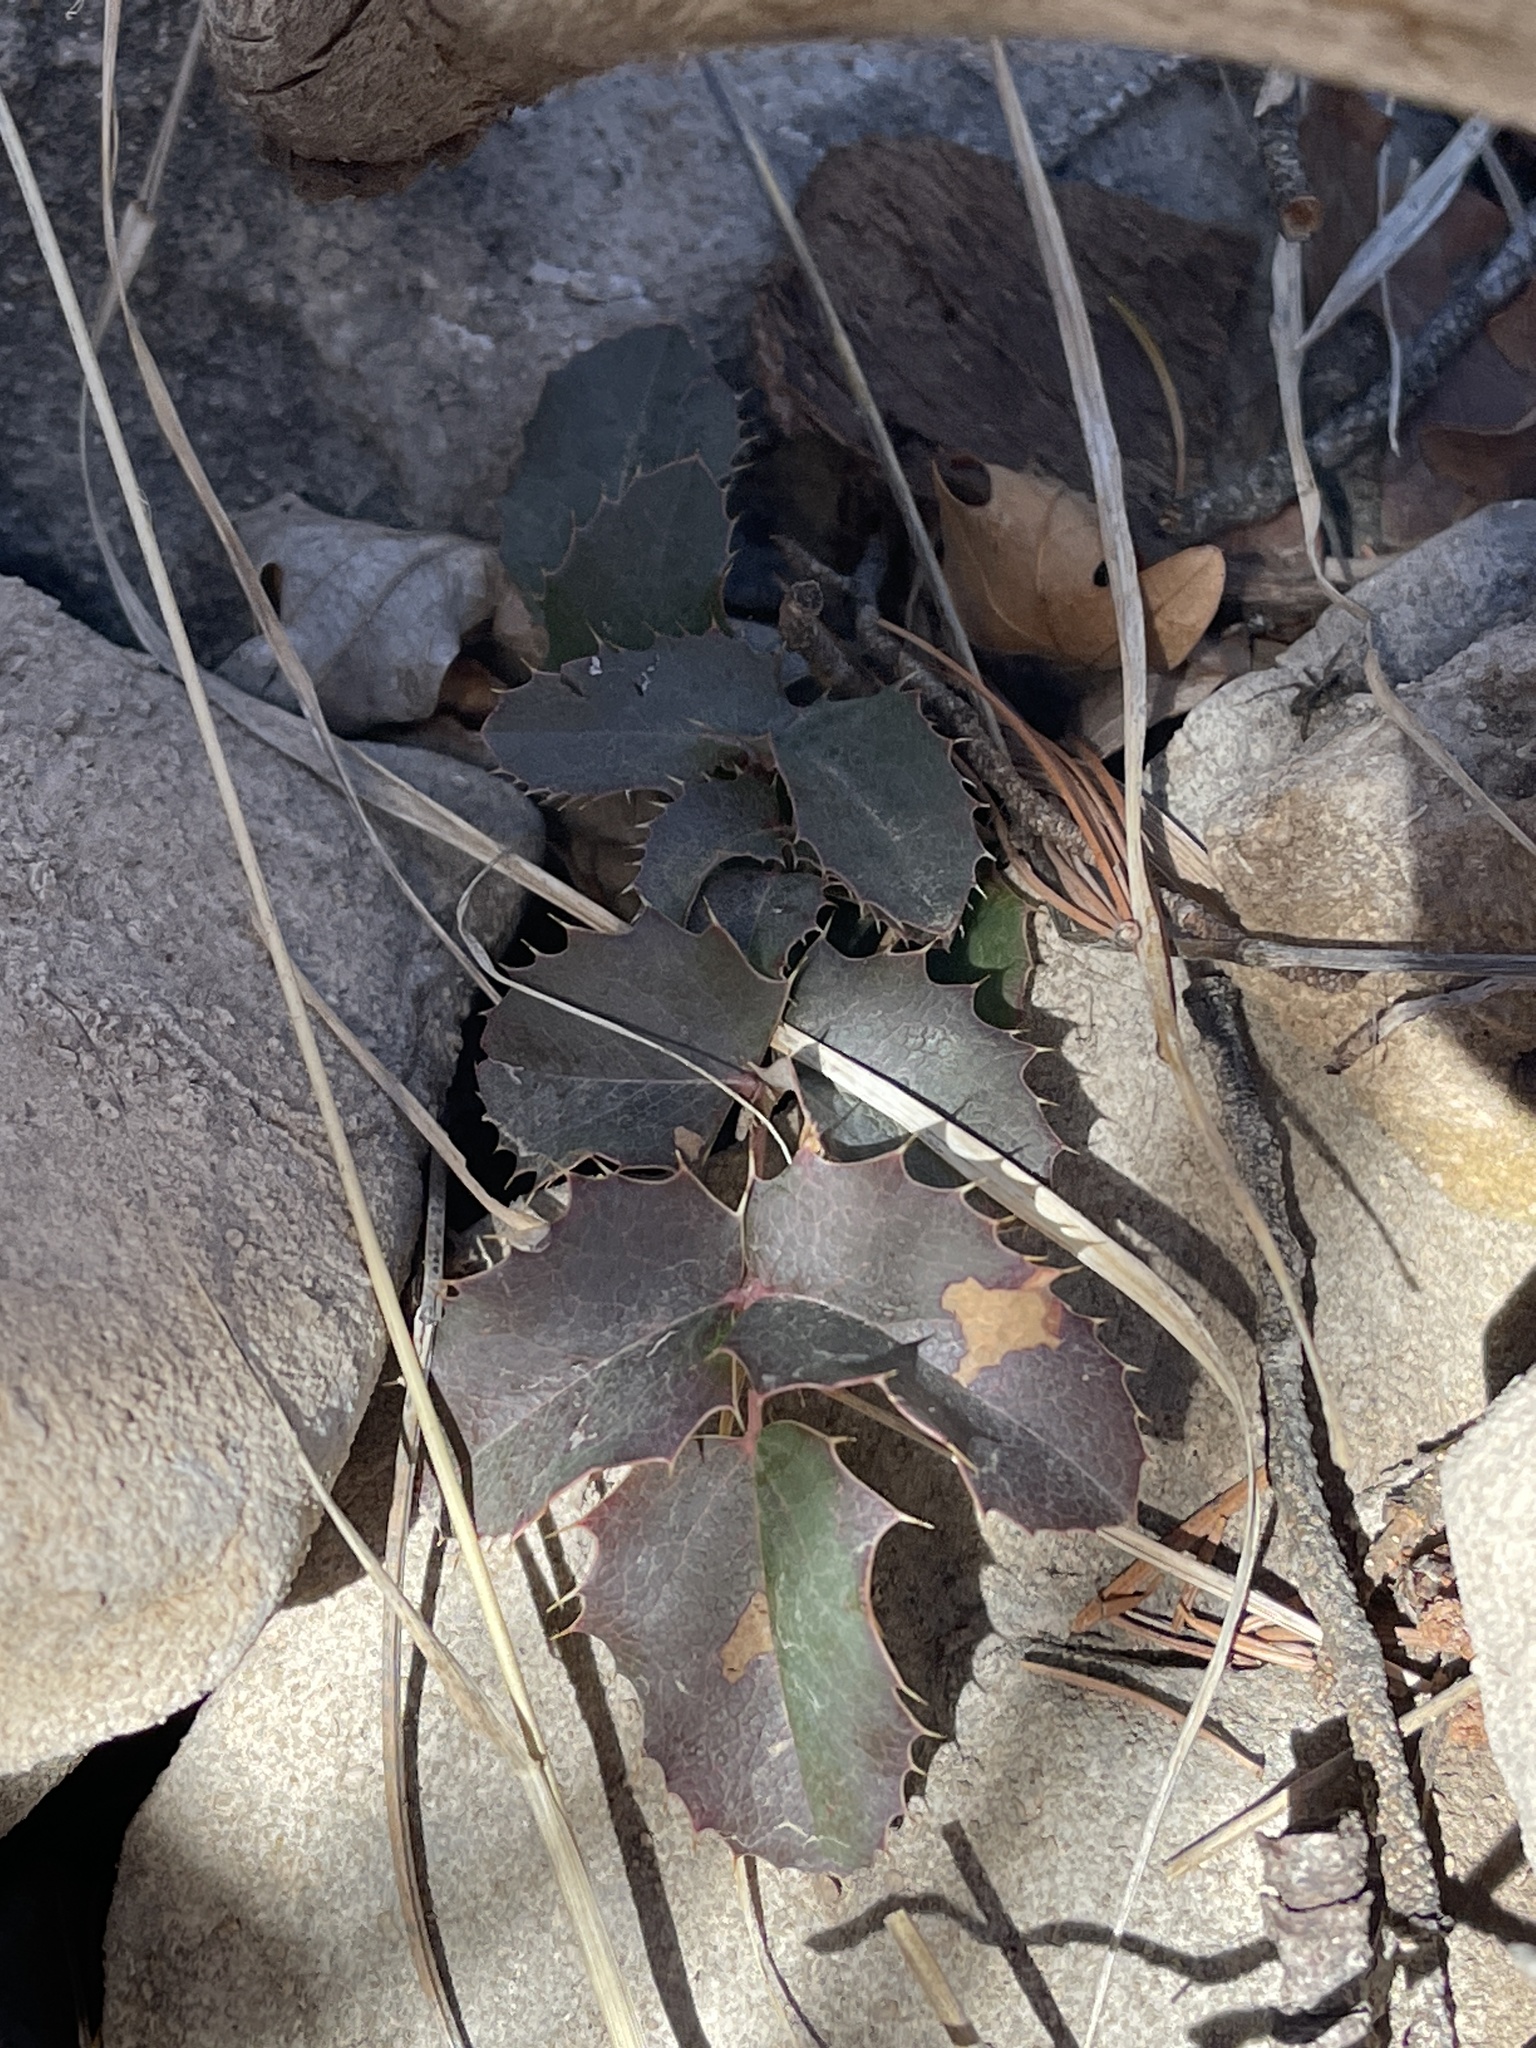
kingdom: Plantae
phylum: Tracheophyta
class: Magnoliopsida
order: Ranunculales
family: Berberidaceae
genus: Mahonia
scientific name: Mahonia repens
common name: Creeping oregon-grape
